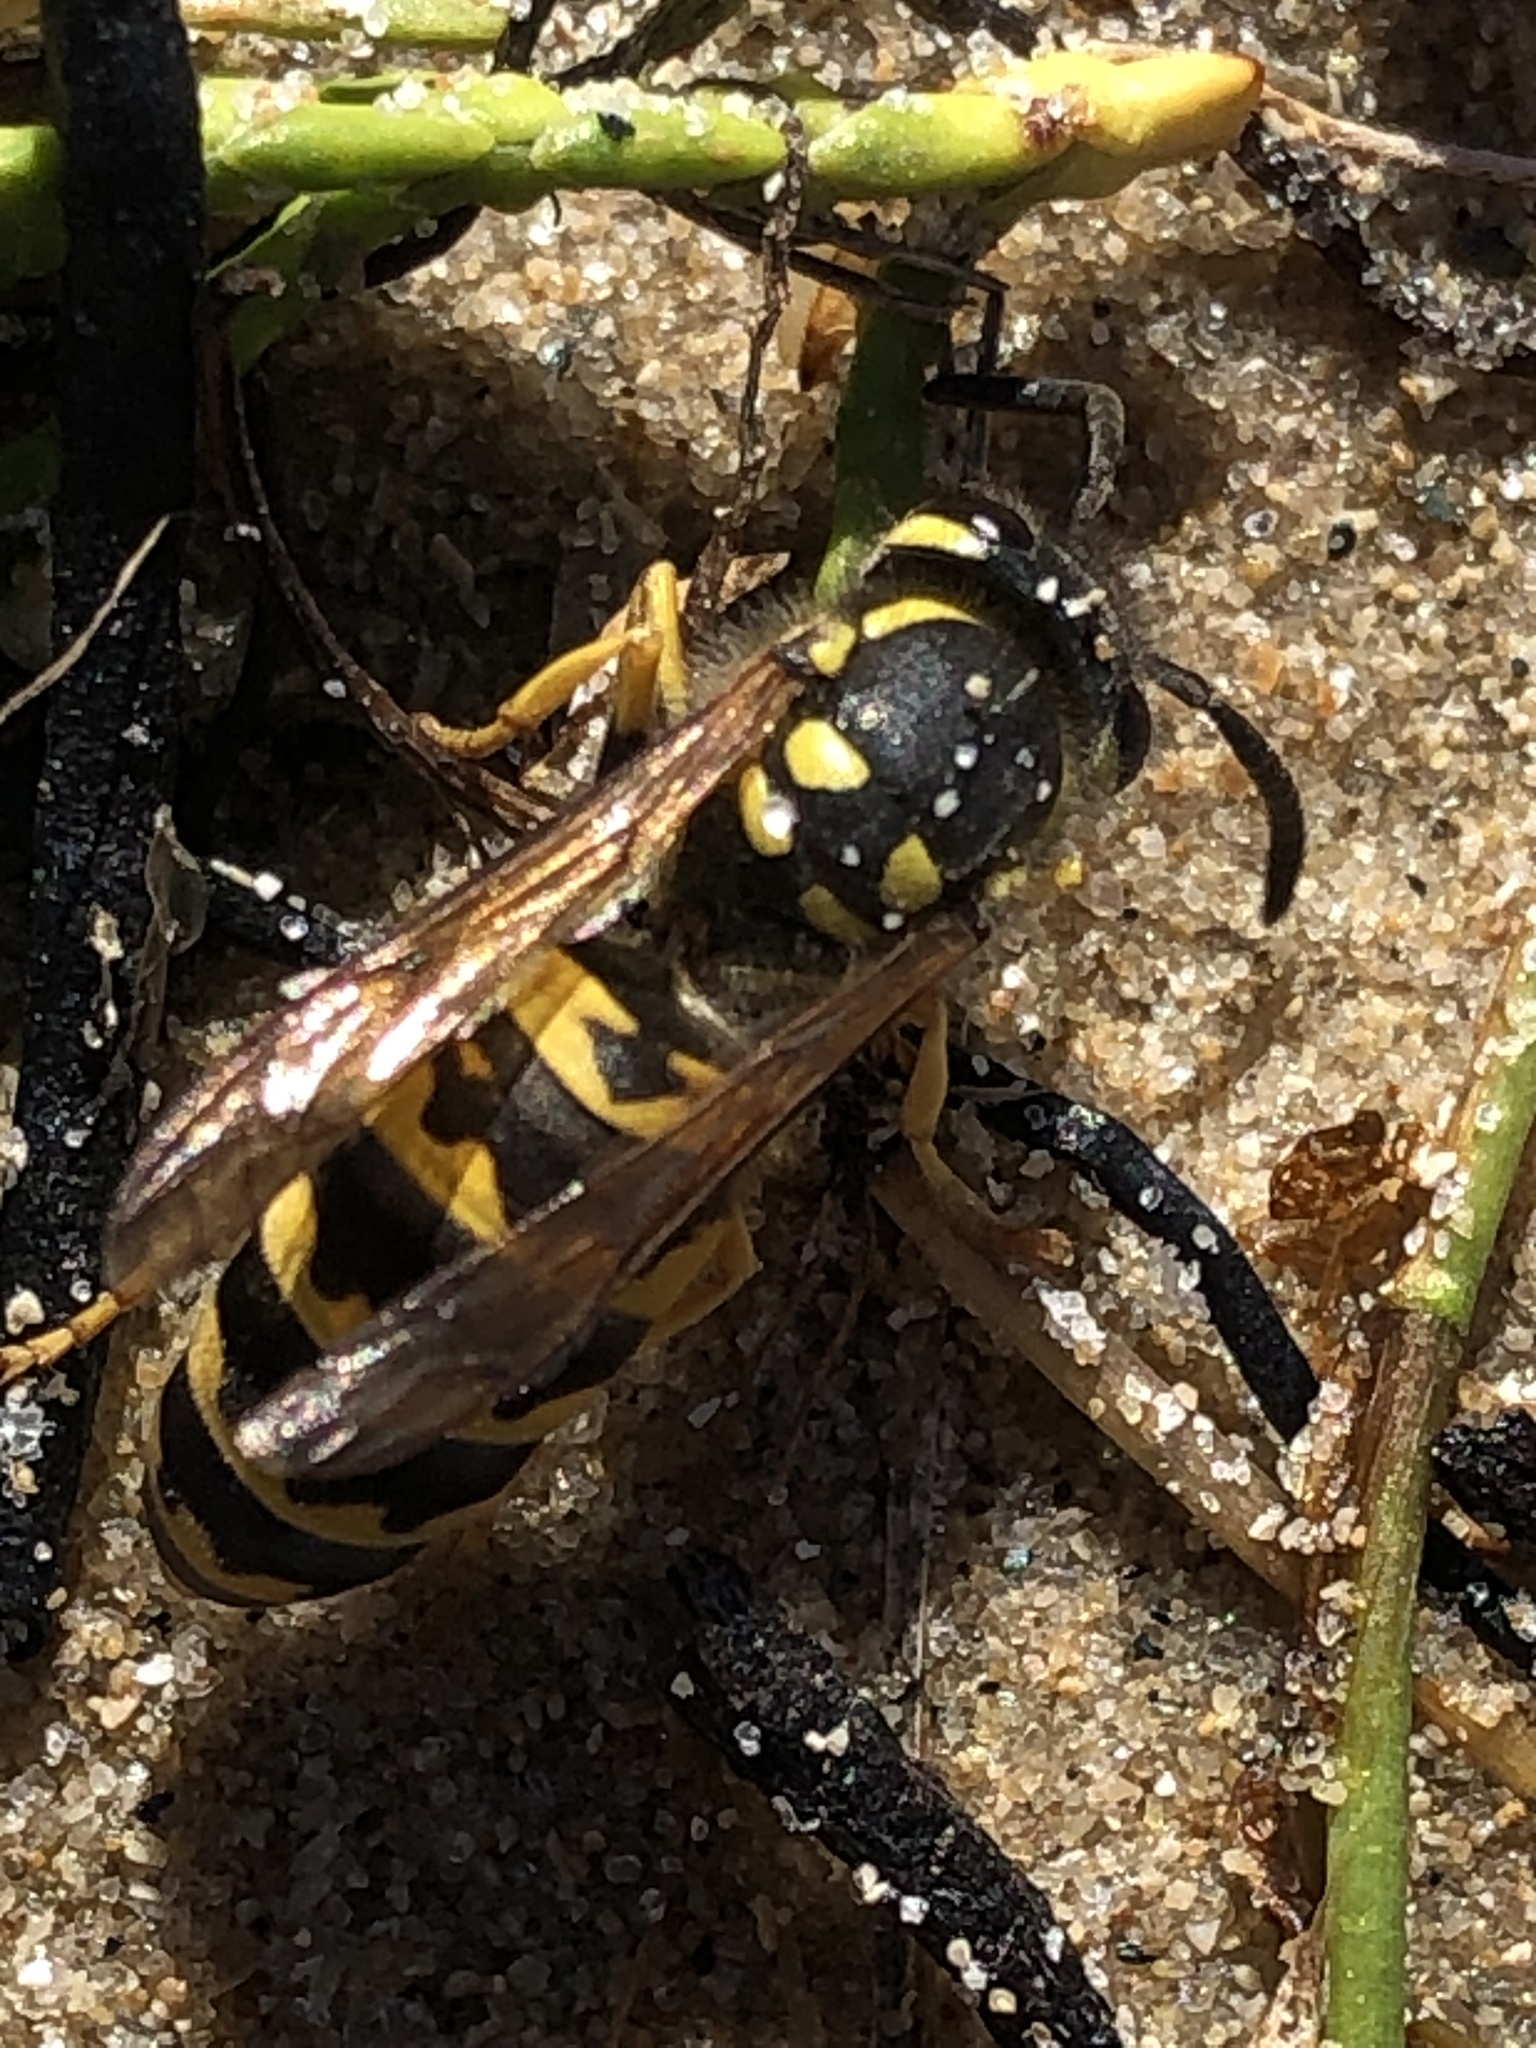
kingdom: Animalia
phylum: Arthropoda
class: Insecta
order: Hymenoptera
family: Vespidae
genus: Vespula
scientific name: Vespula germanica
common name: German wasp
